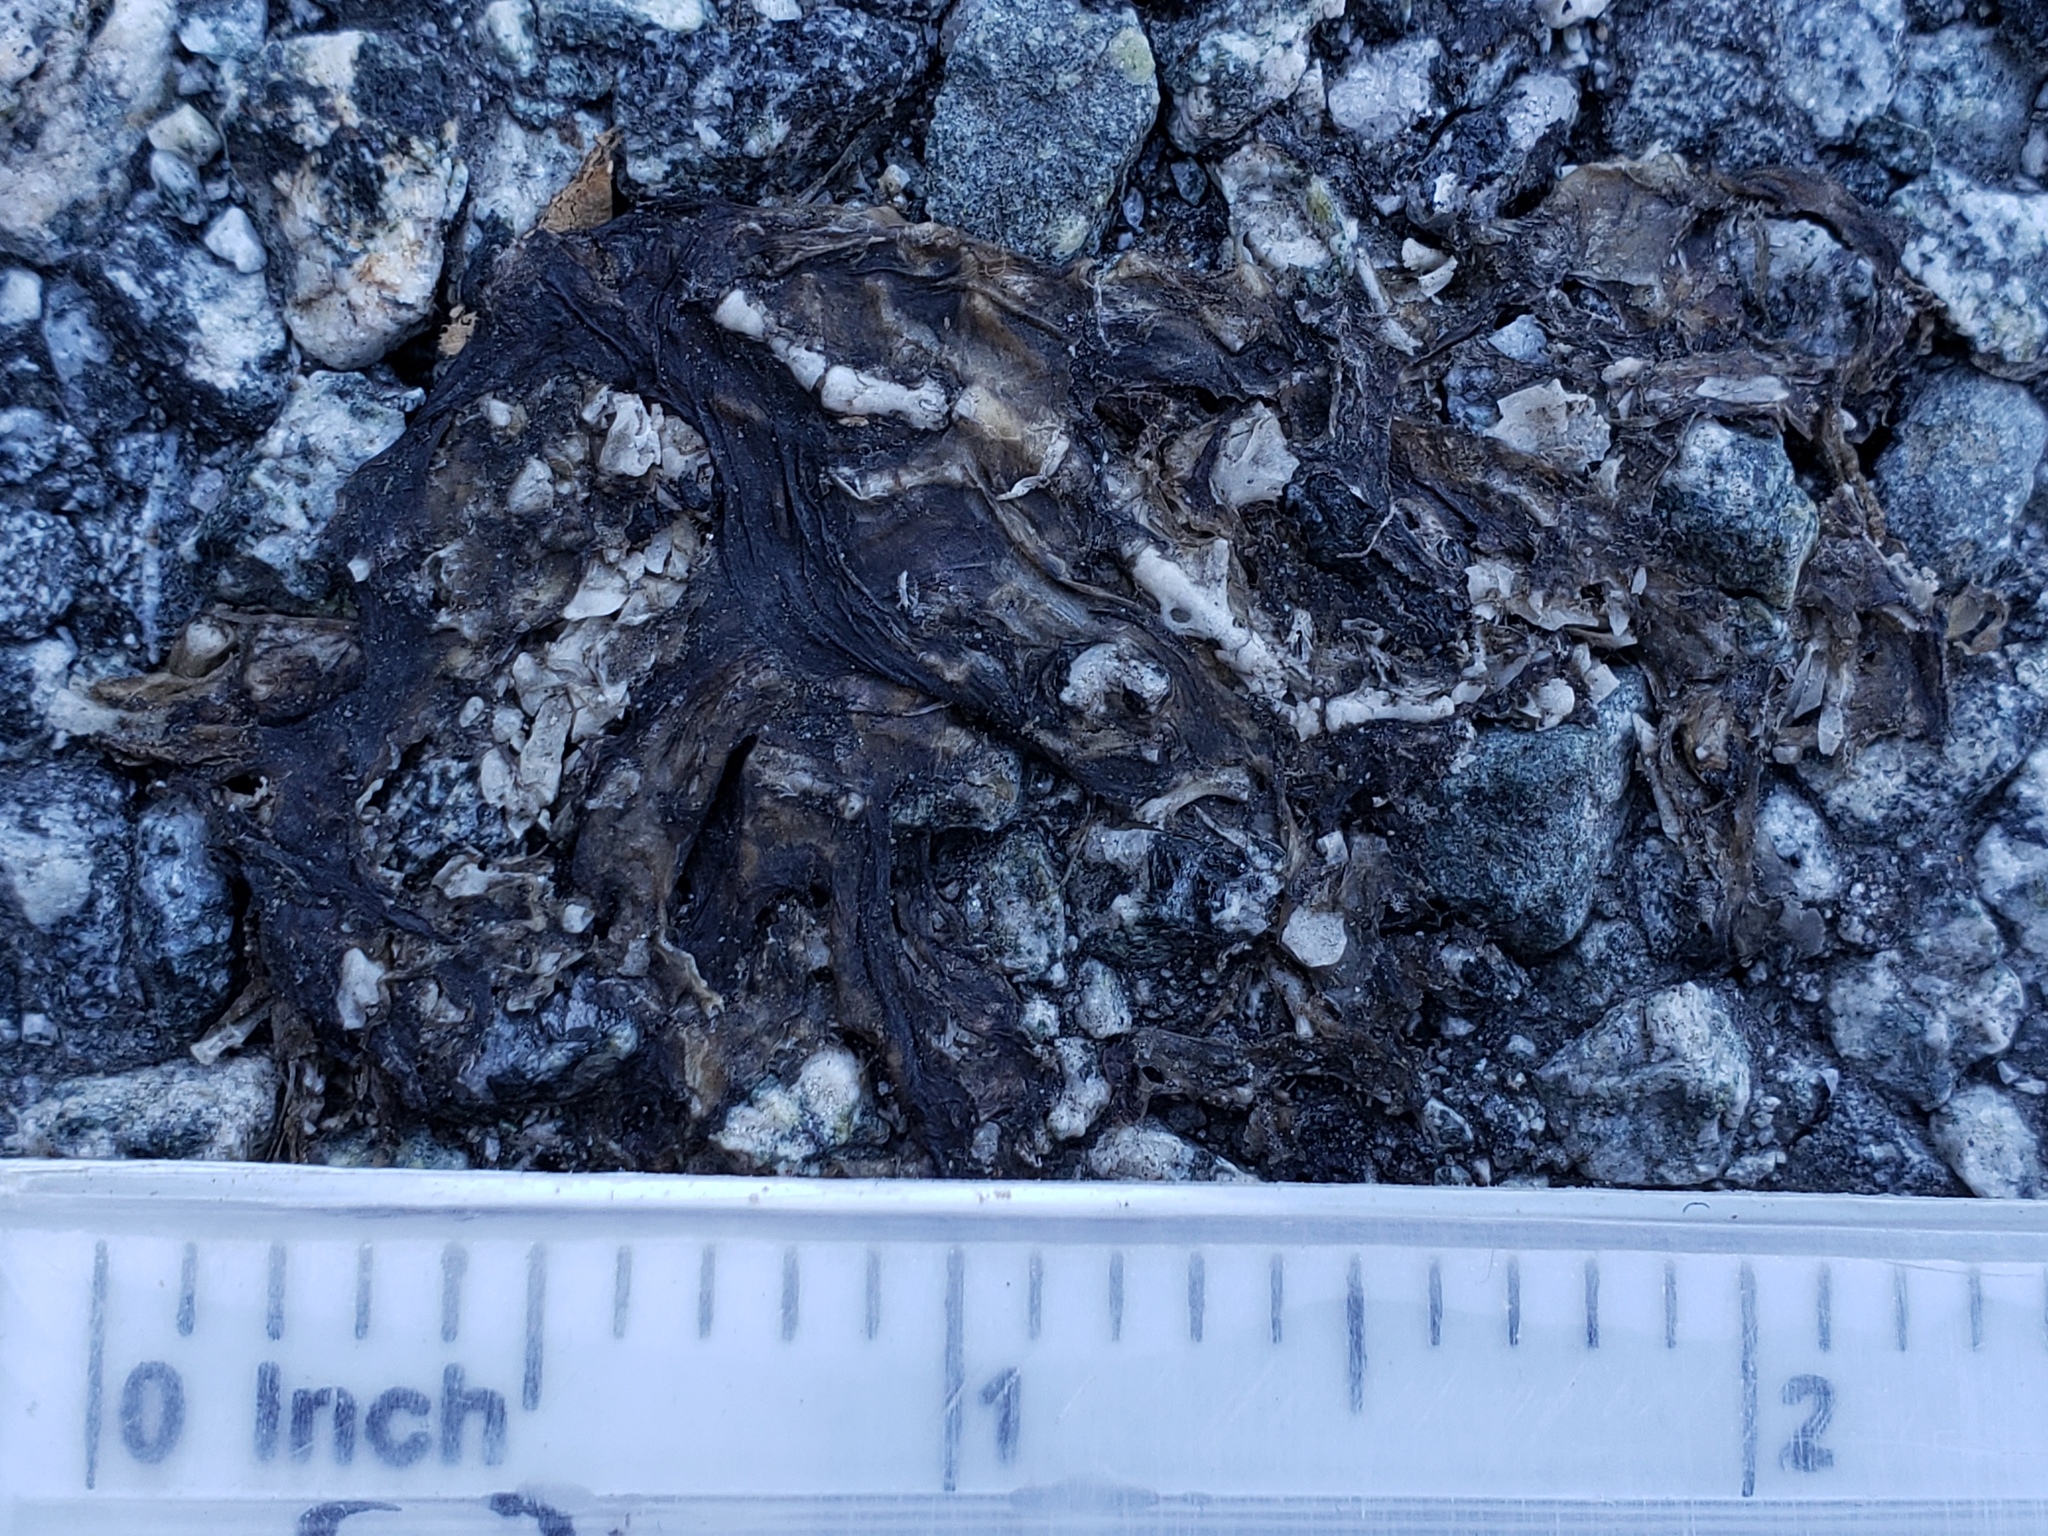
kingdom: Animalia
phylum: Chordata
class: Amphibia
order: Caudata
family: Salamandridae
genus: Taricha
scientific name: Taricha
